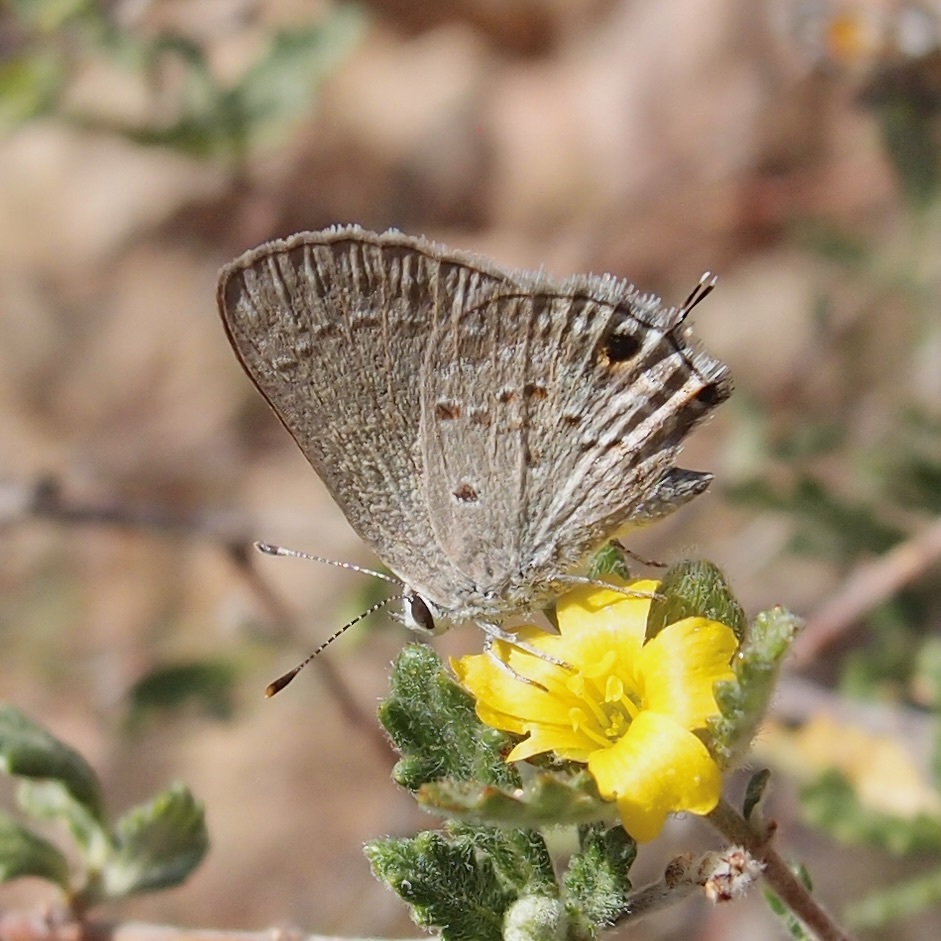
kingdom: Animalia
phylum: Arthropoda
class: Insecta
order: Lepidoptera
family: Lycaenidae
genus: Callicista
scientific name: Callicista columella
